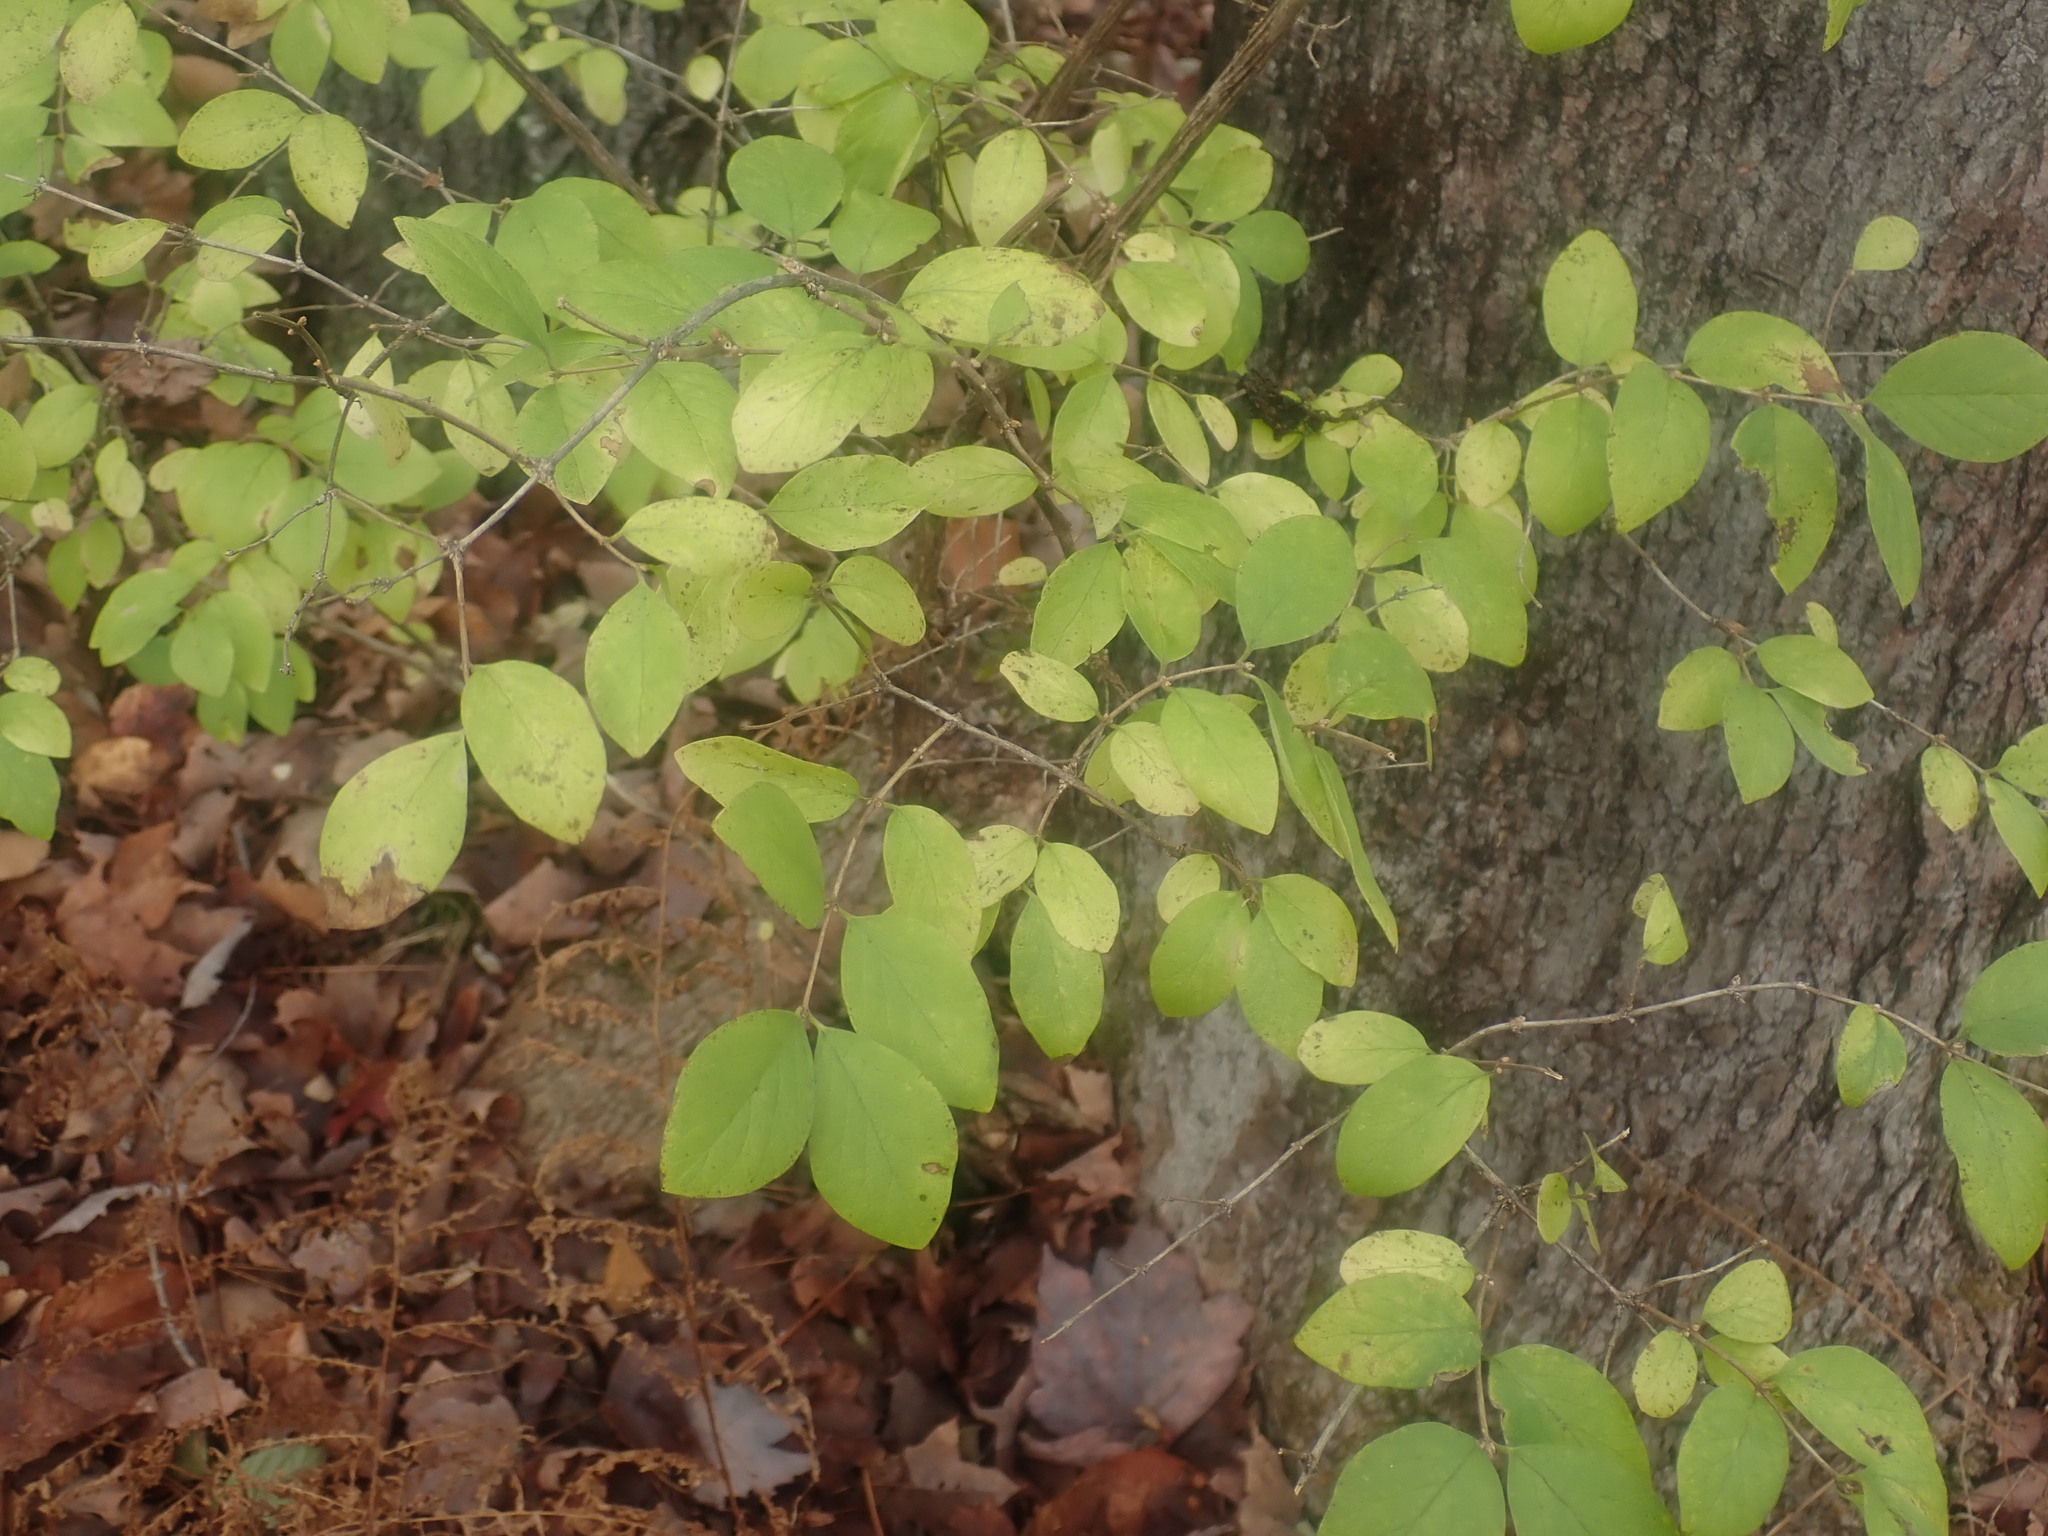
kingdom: Plantae
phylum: Tracheophyta
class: Magnoliopsida
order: Dipsacales
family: Caprifoliaceae
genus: Lonicera
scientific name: Lonicera
